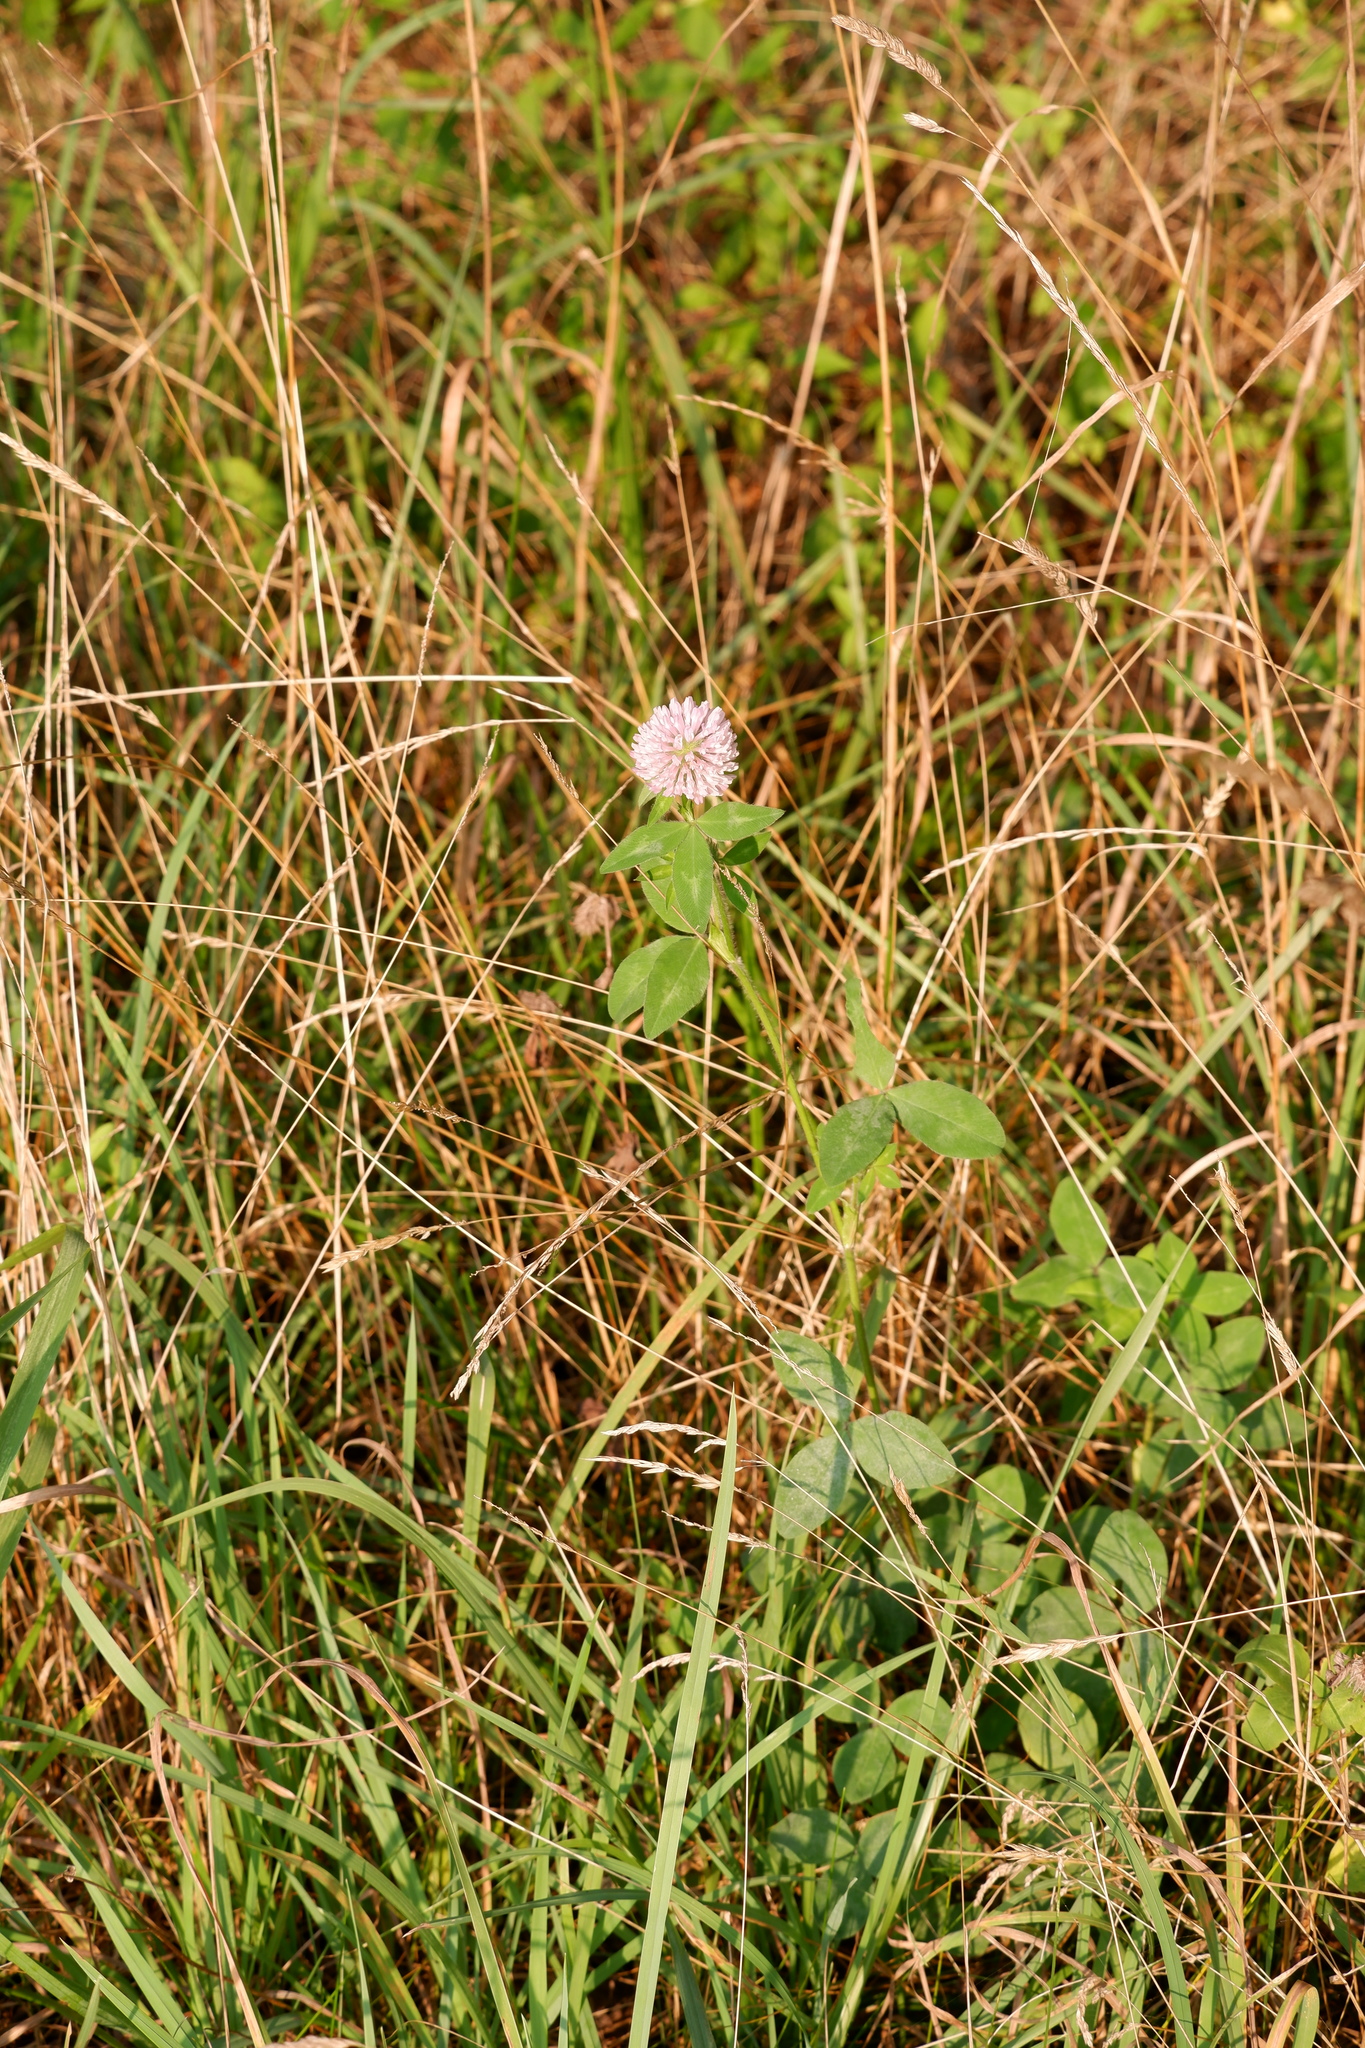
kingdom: Plantae
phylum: Tracheophyta
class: Magnoliopsida
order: Fabales
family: Fabaceae
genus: Trifolium
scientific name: Trifolium pratense
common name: Red clover
